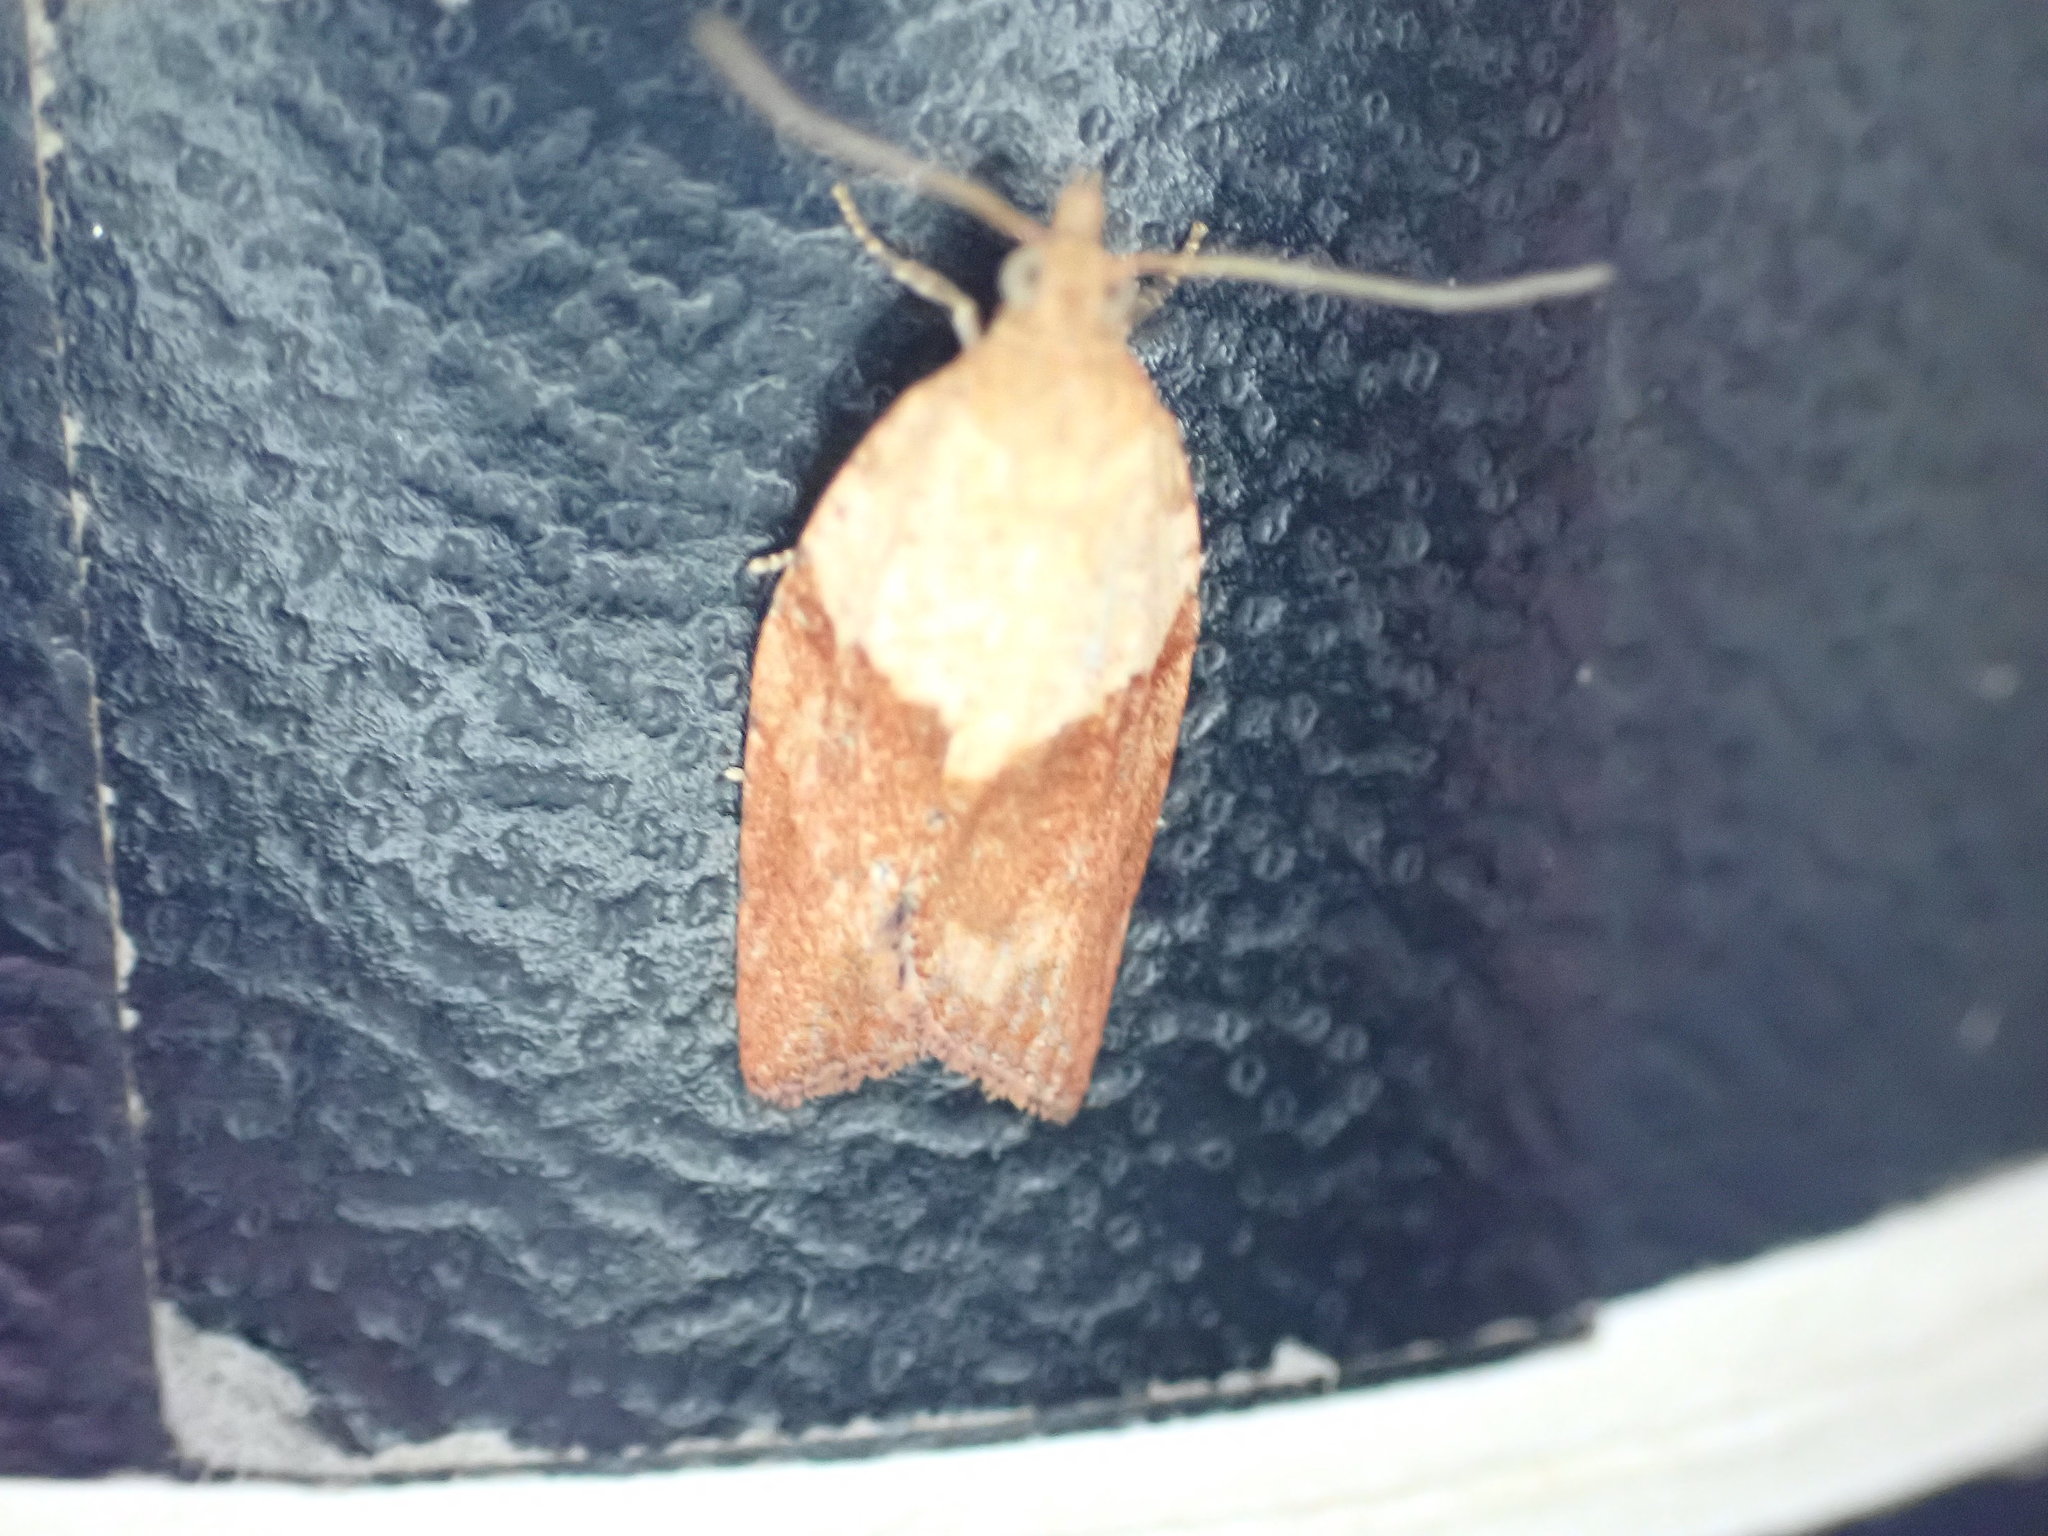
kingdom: Animalia
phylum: Arthropoda
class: Insecta
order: Lepidoptera
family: Tortricidae
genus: Epiphyas
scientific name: Epiphyas postvittana
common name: Light brown apple moth
